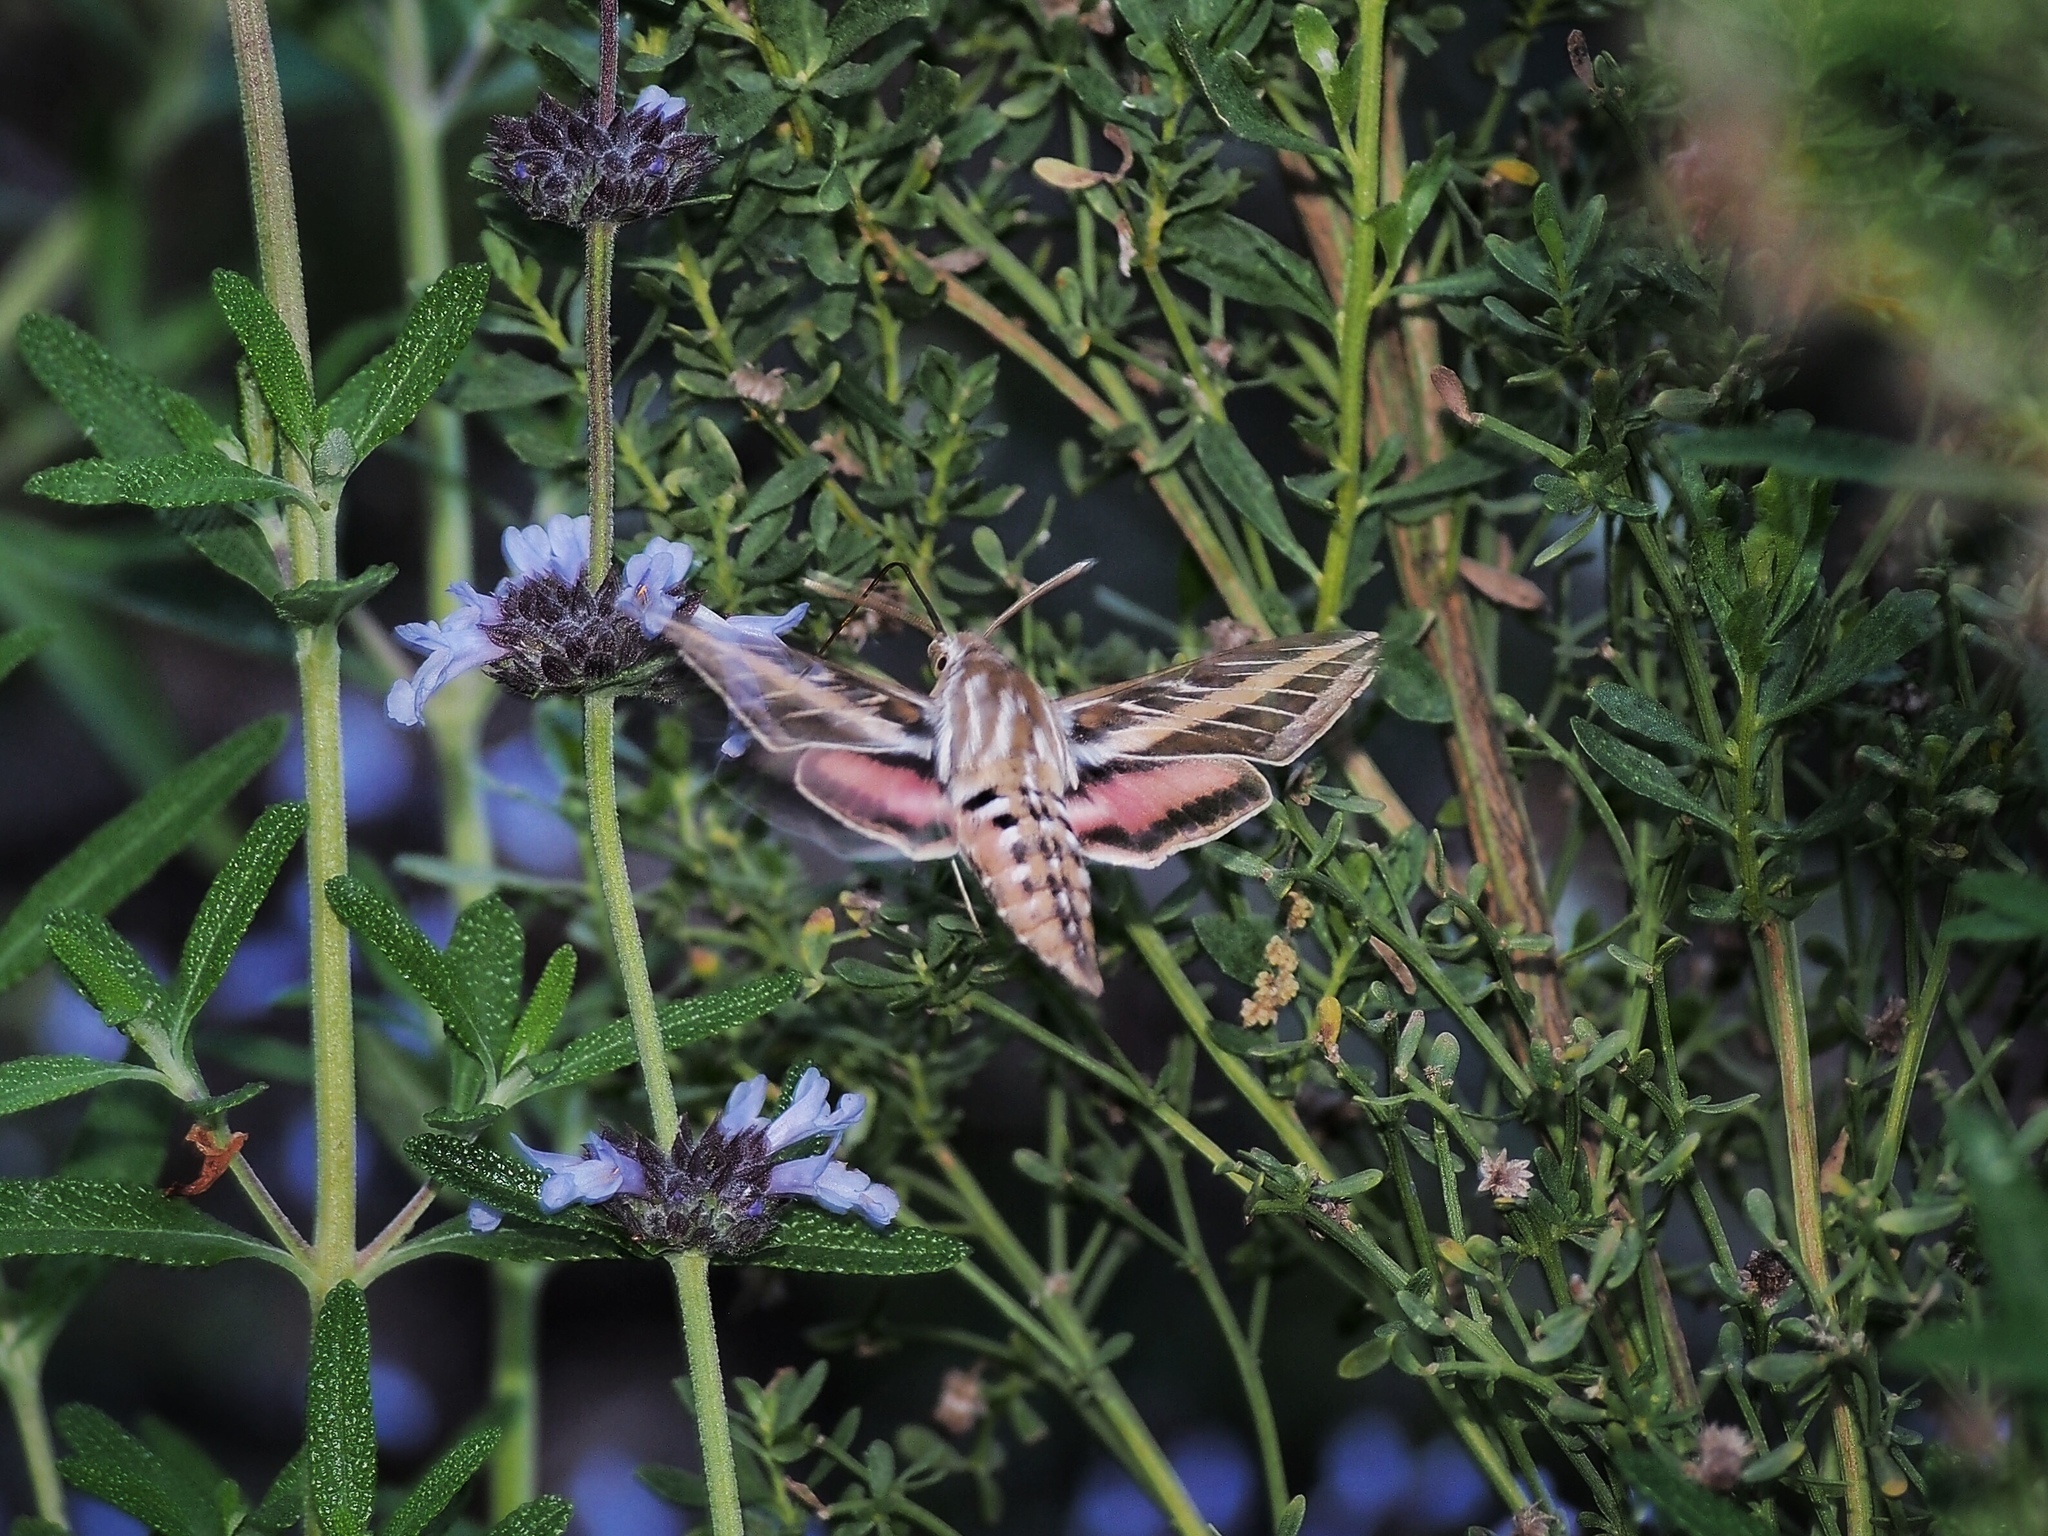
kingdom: Animalia
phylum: Arthropoda
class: Insecta
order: Lepidoptera
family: Sphingidae
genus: Hyles
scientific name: Hyles lineata
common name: White-lined sphinx
